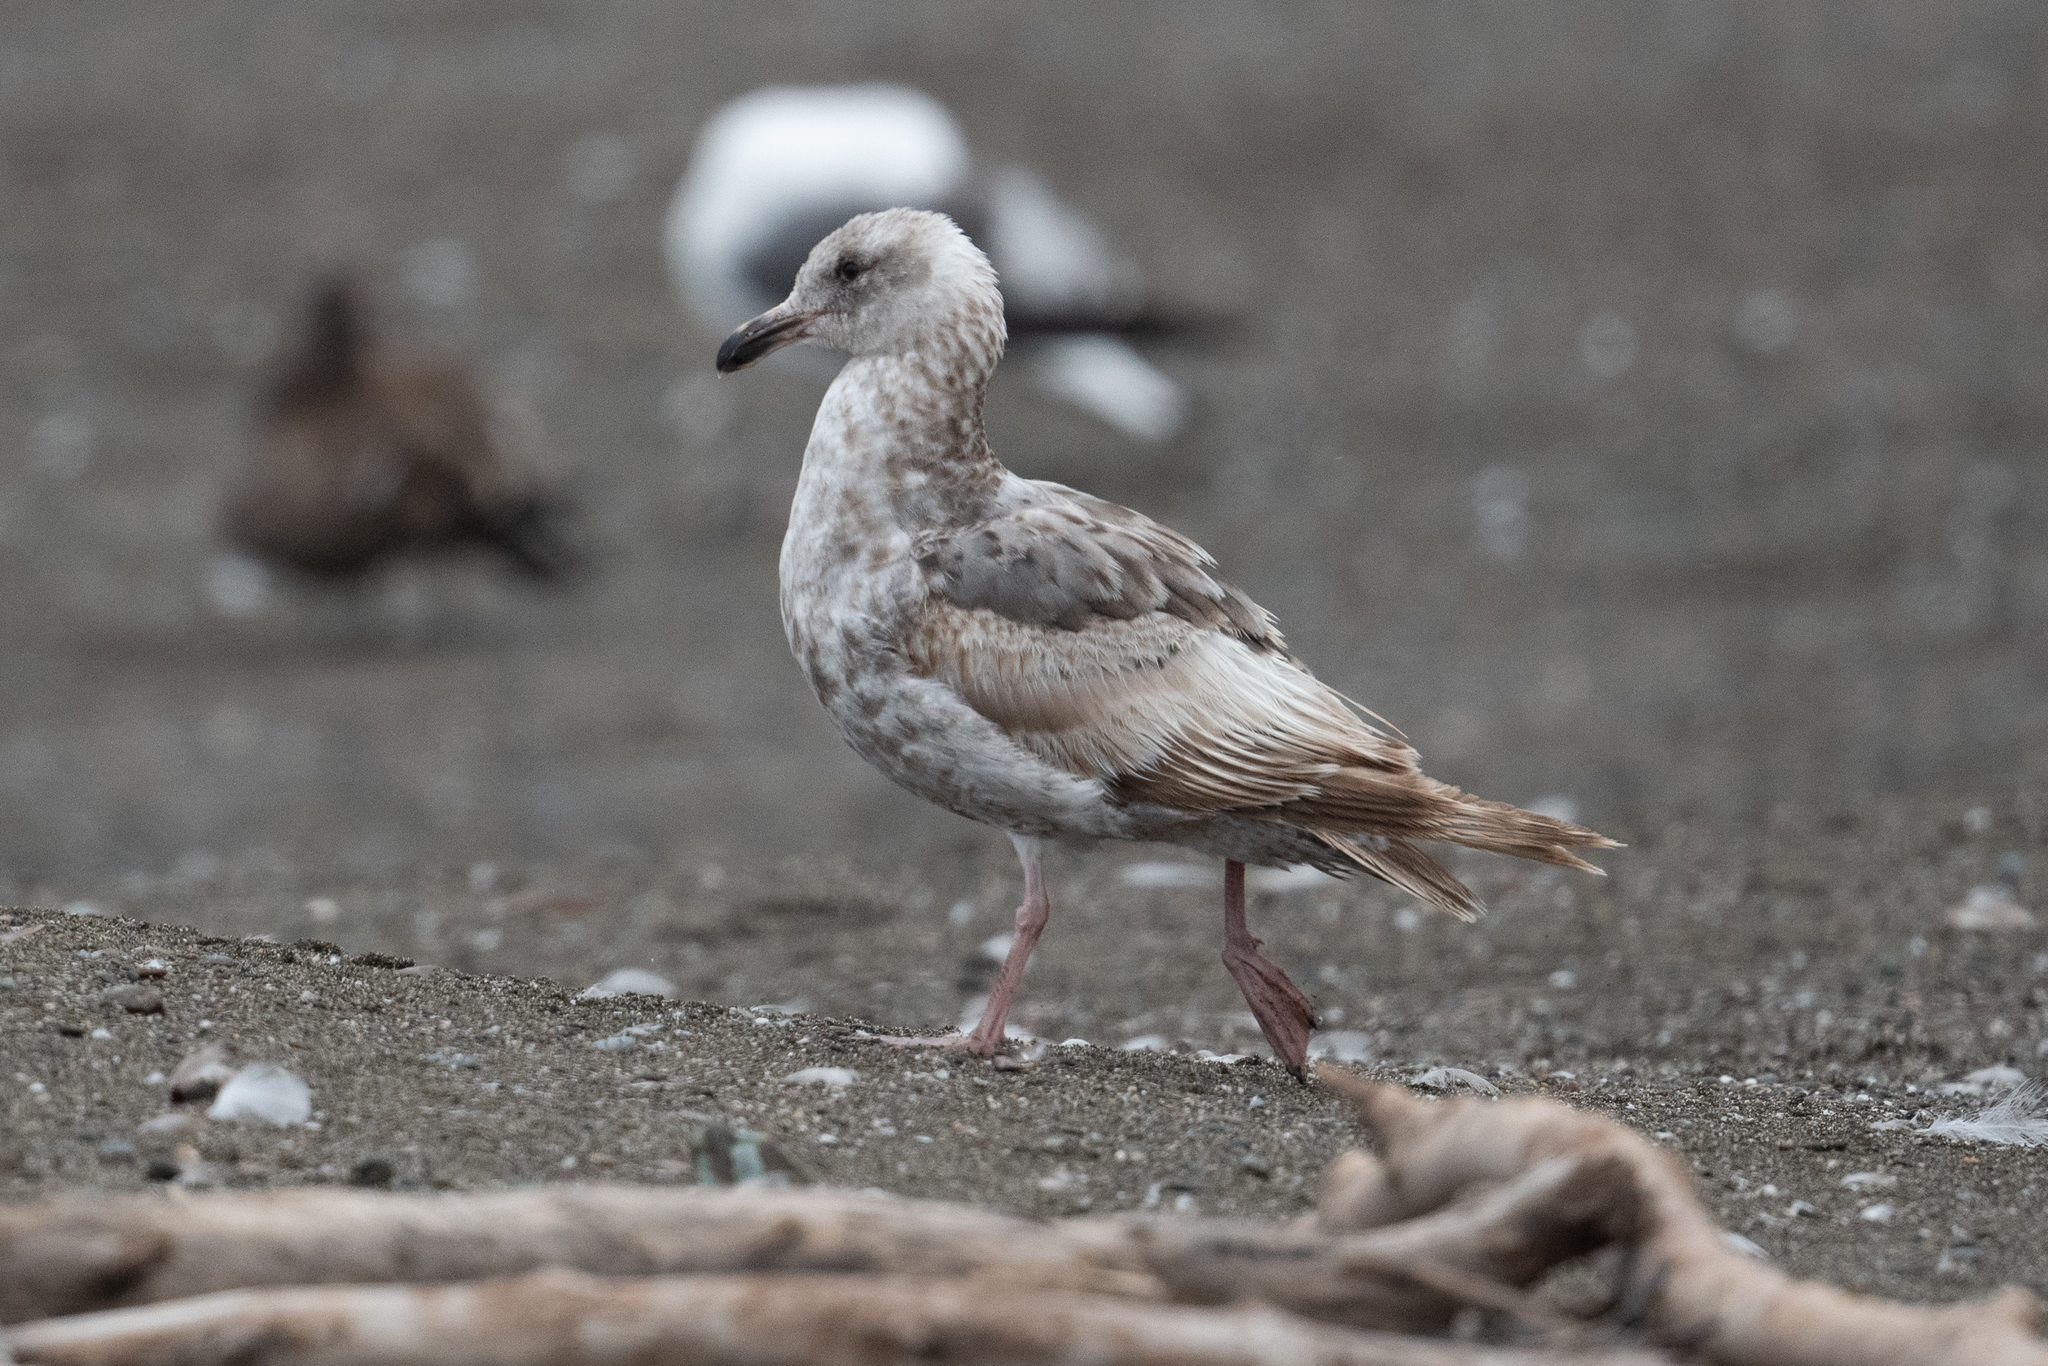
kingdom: Animalia
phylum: Chordata
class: Aves
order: Charadriiformes
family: Laridae
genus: Larus
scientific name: Larus occidentalis
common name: Western gull
